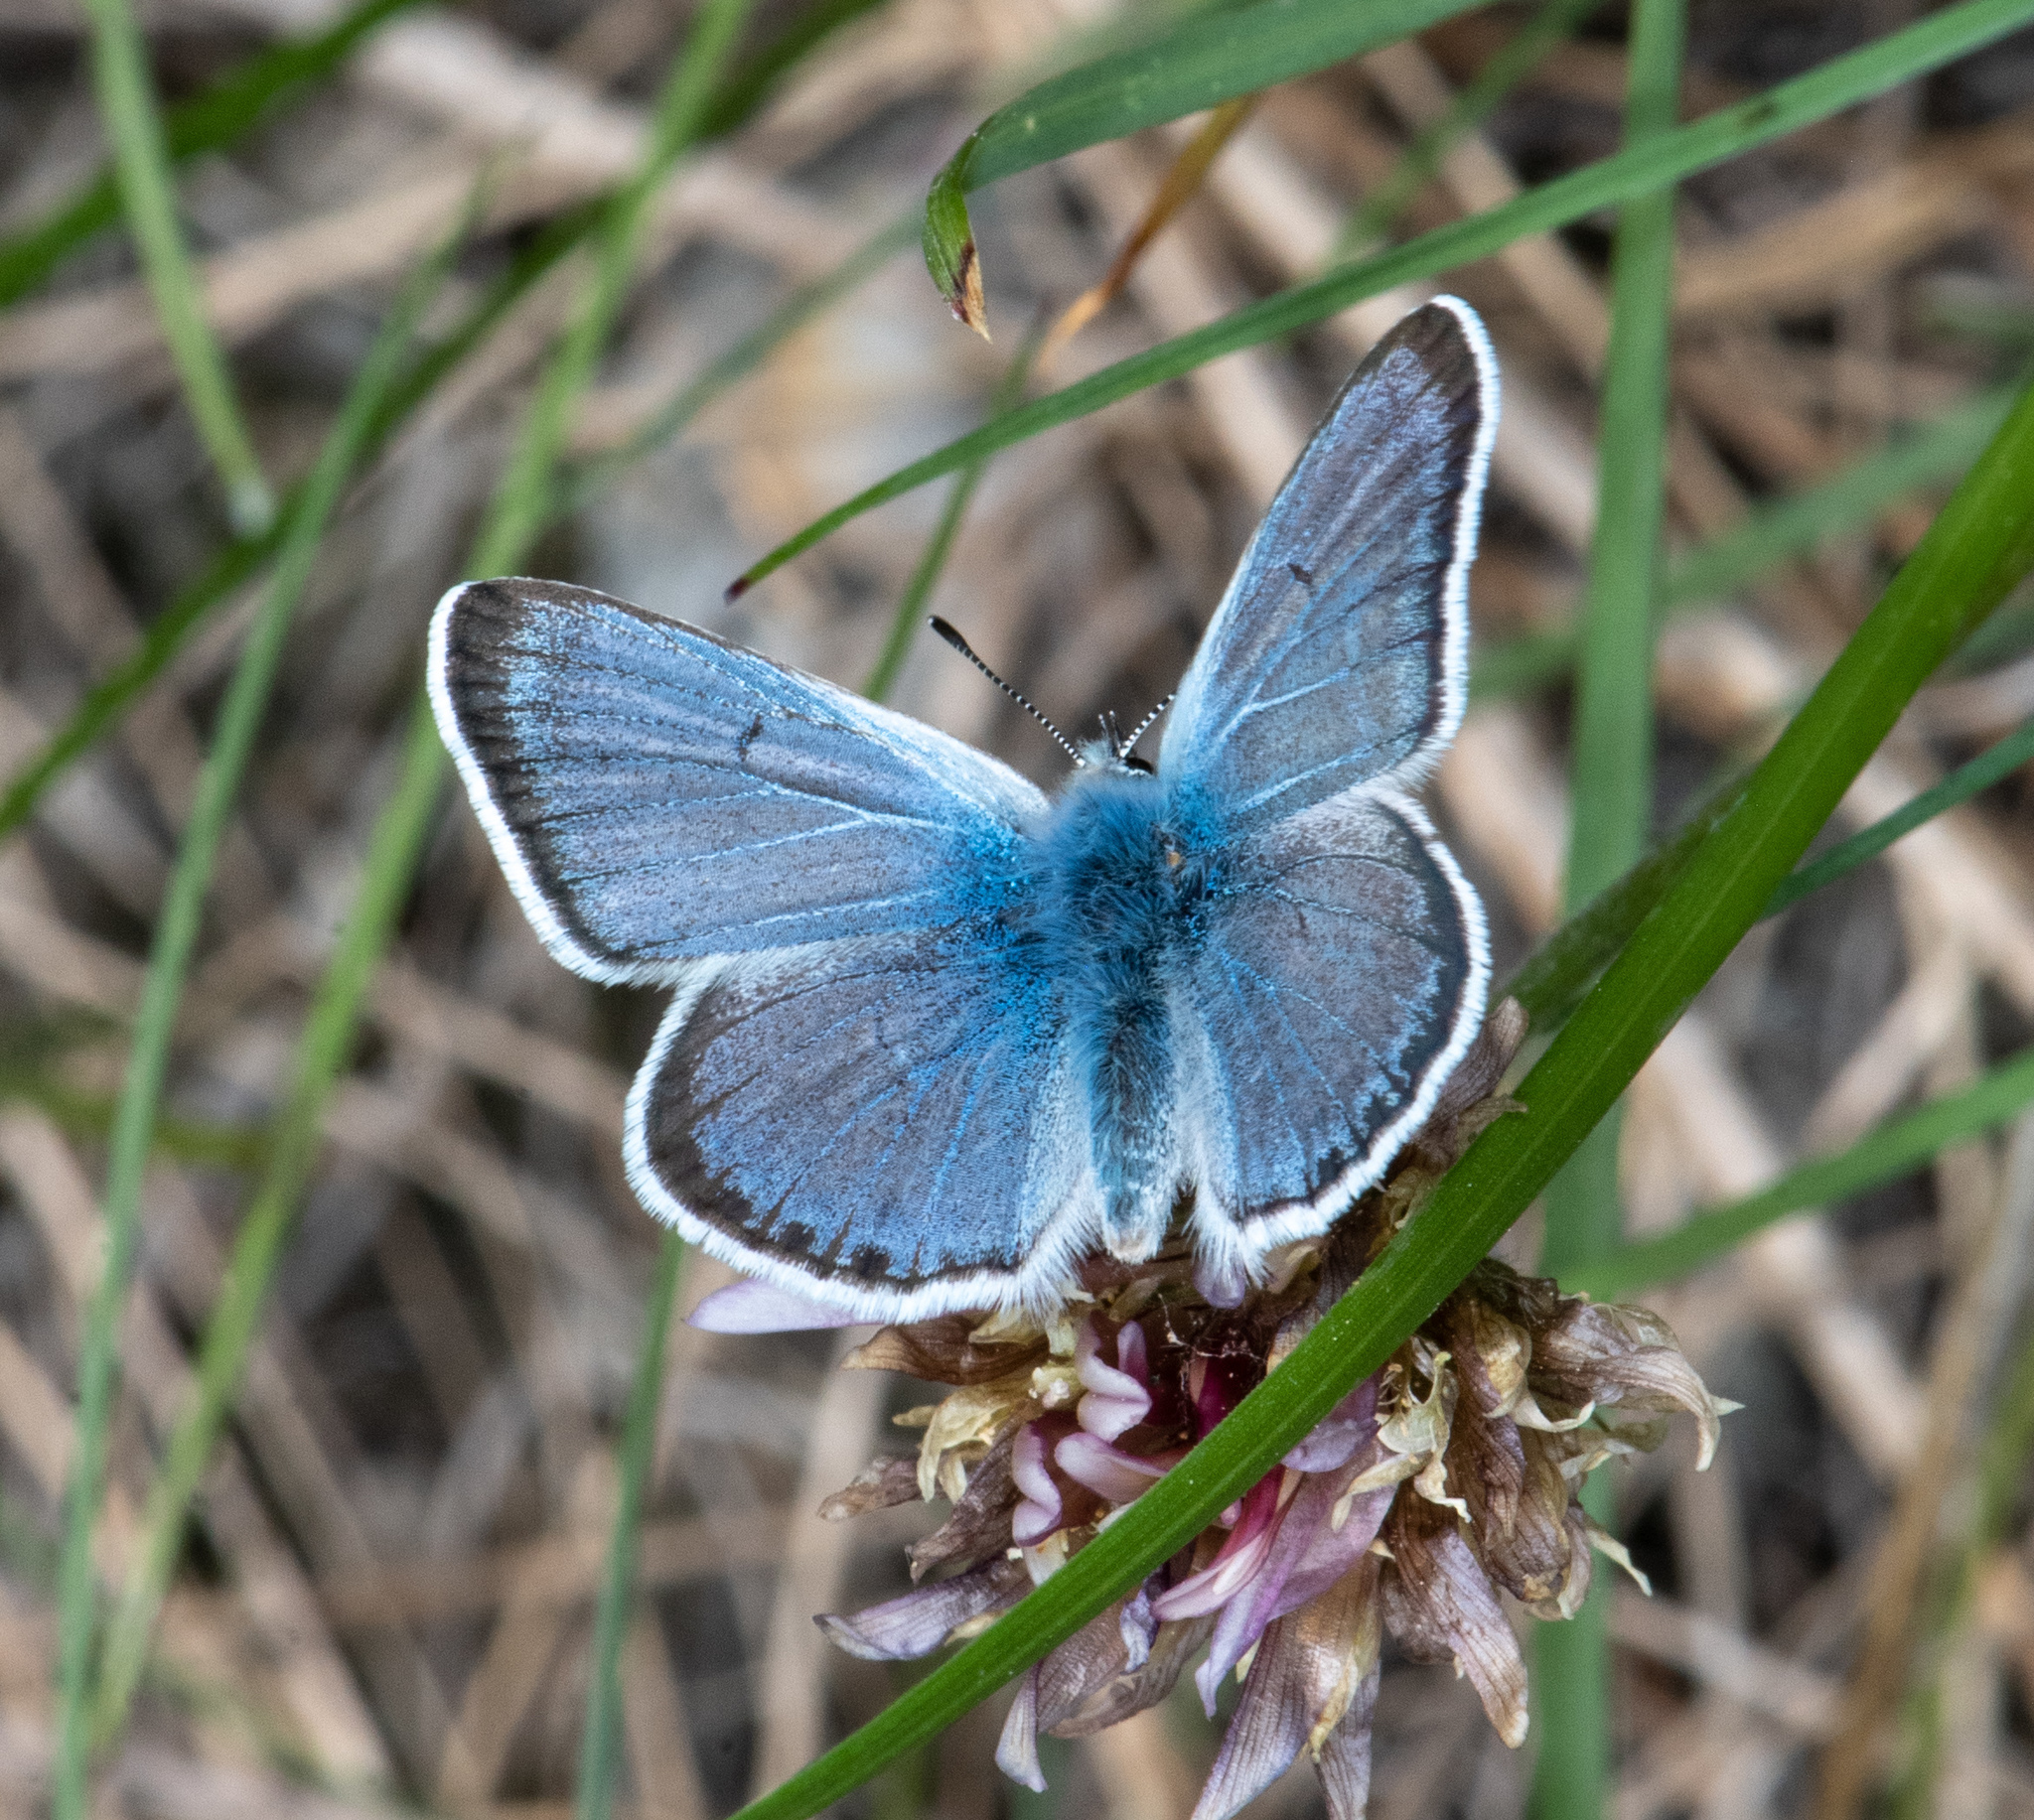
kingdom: Animalia
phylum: Arthropoda
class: Insecta
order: Lepidoptera
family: Lycaenidae
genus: Icaricia
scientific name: Icaricia saepiolus
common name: Greenish blue
